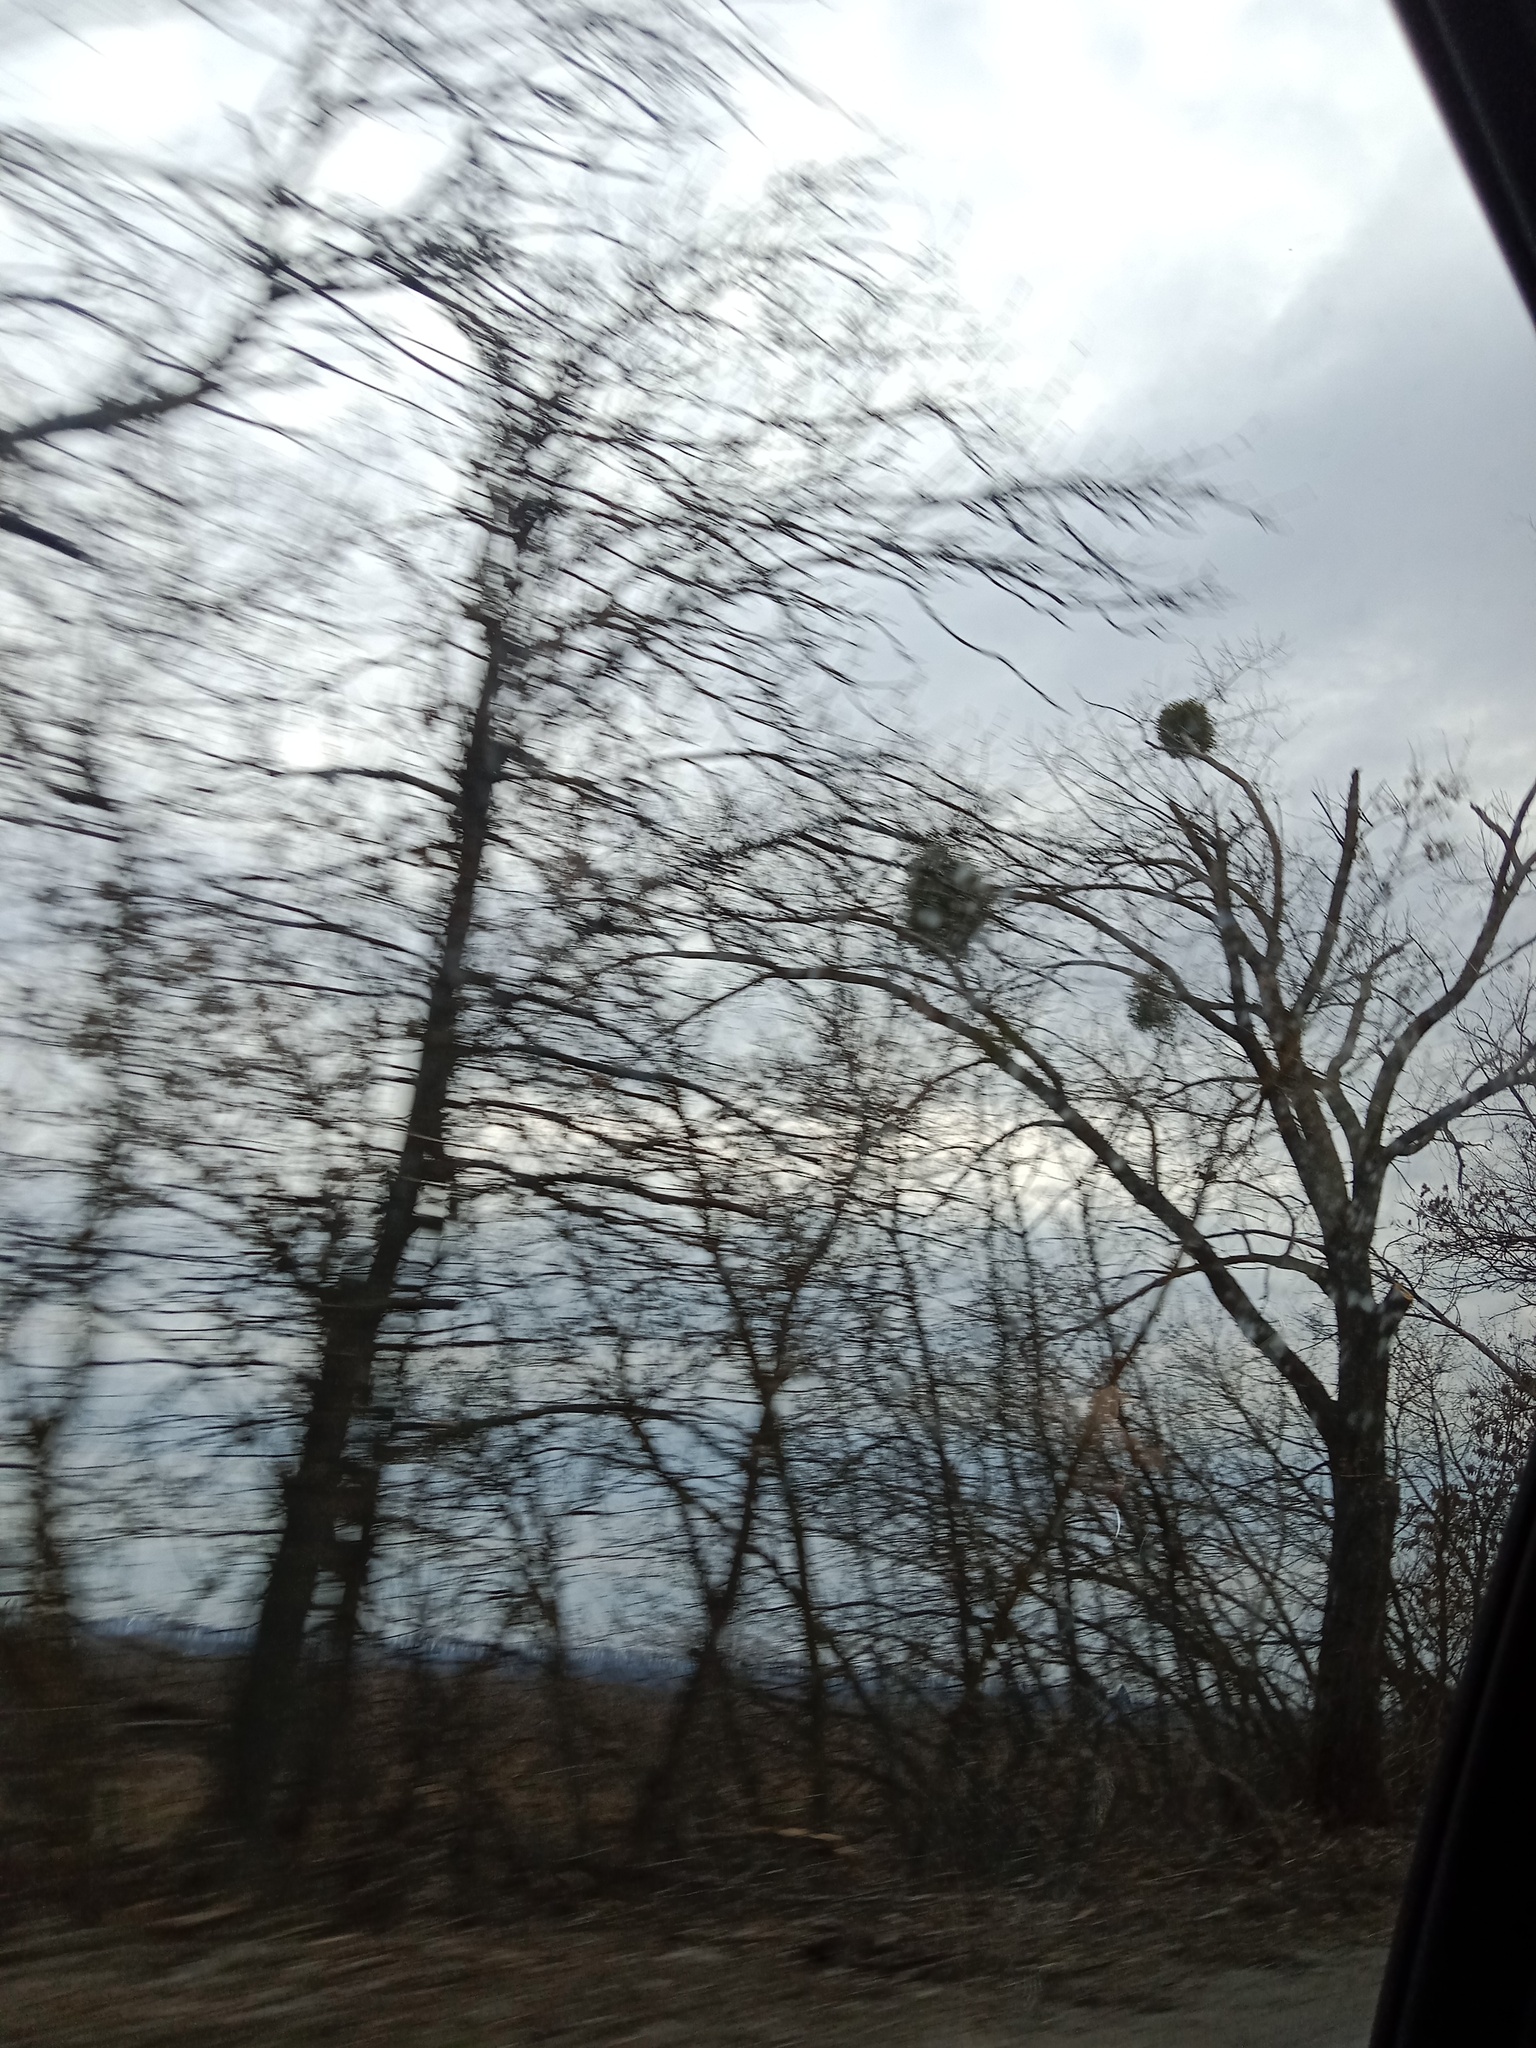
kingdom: Plantae
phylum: Tracheophyta
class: Magnoliopsida
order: Santalales
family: Viscaceae
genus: Viscum
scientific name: Viscum album
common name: Mistletoe
